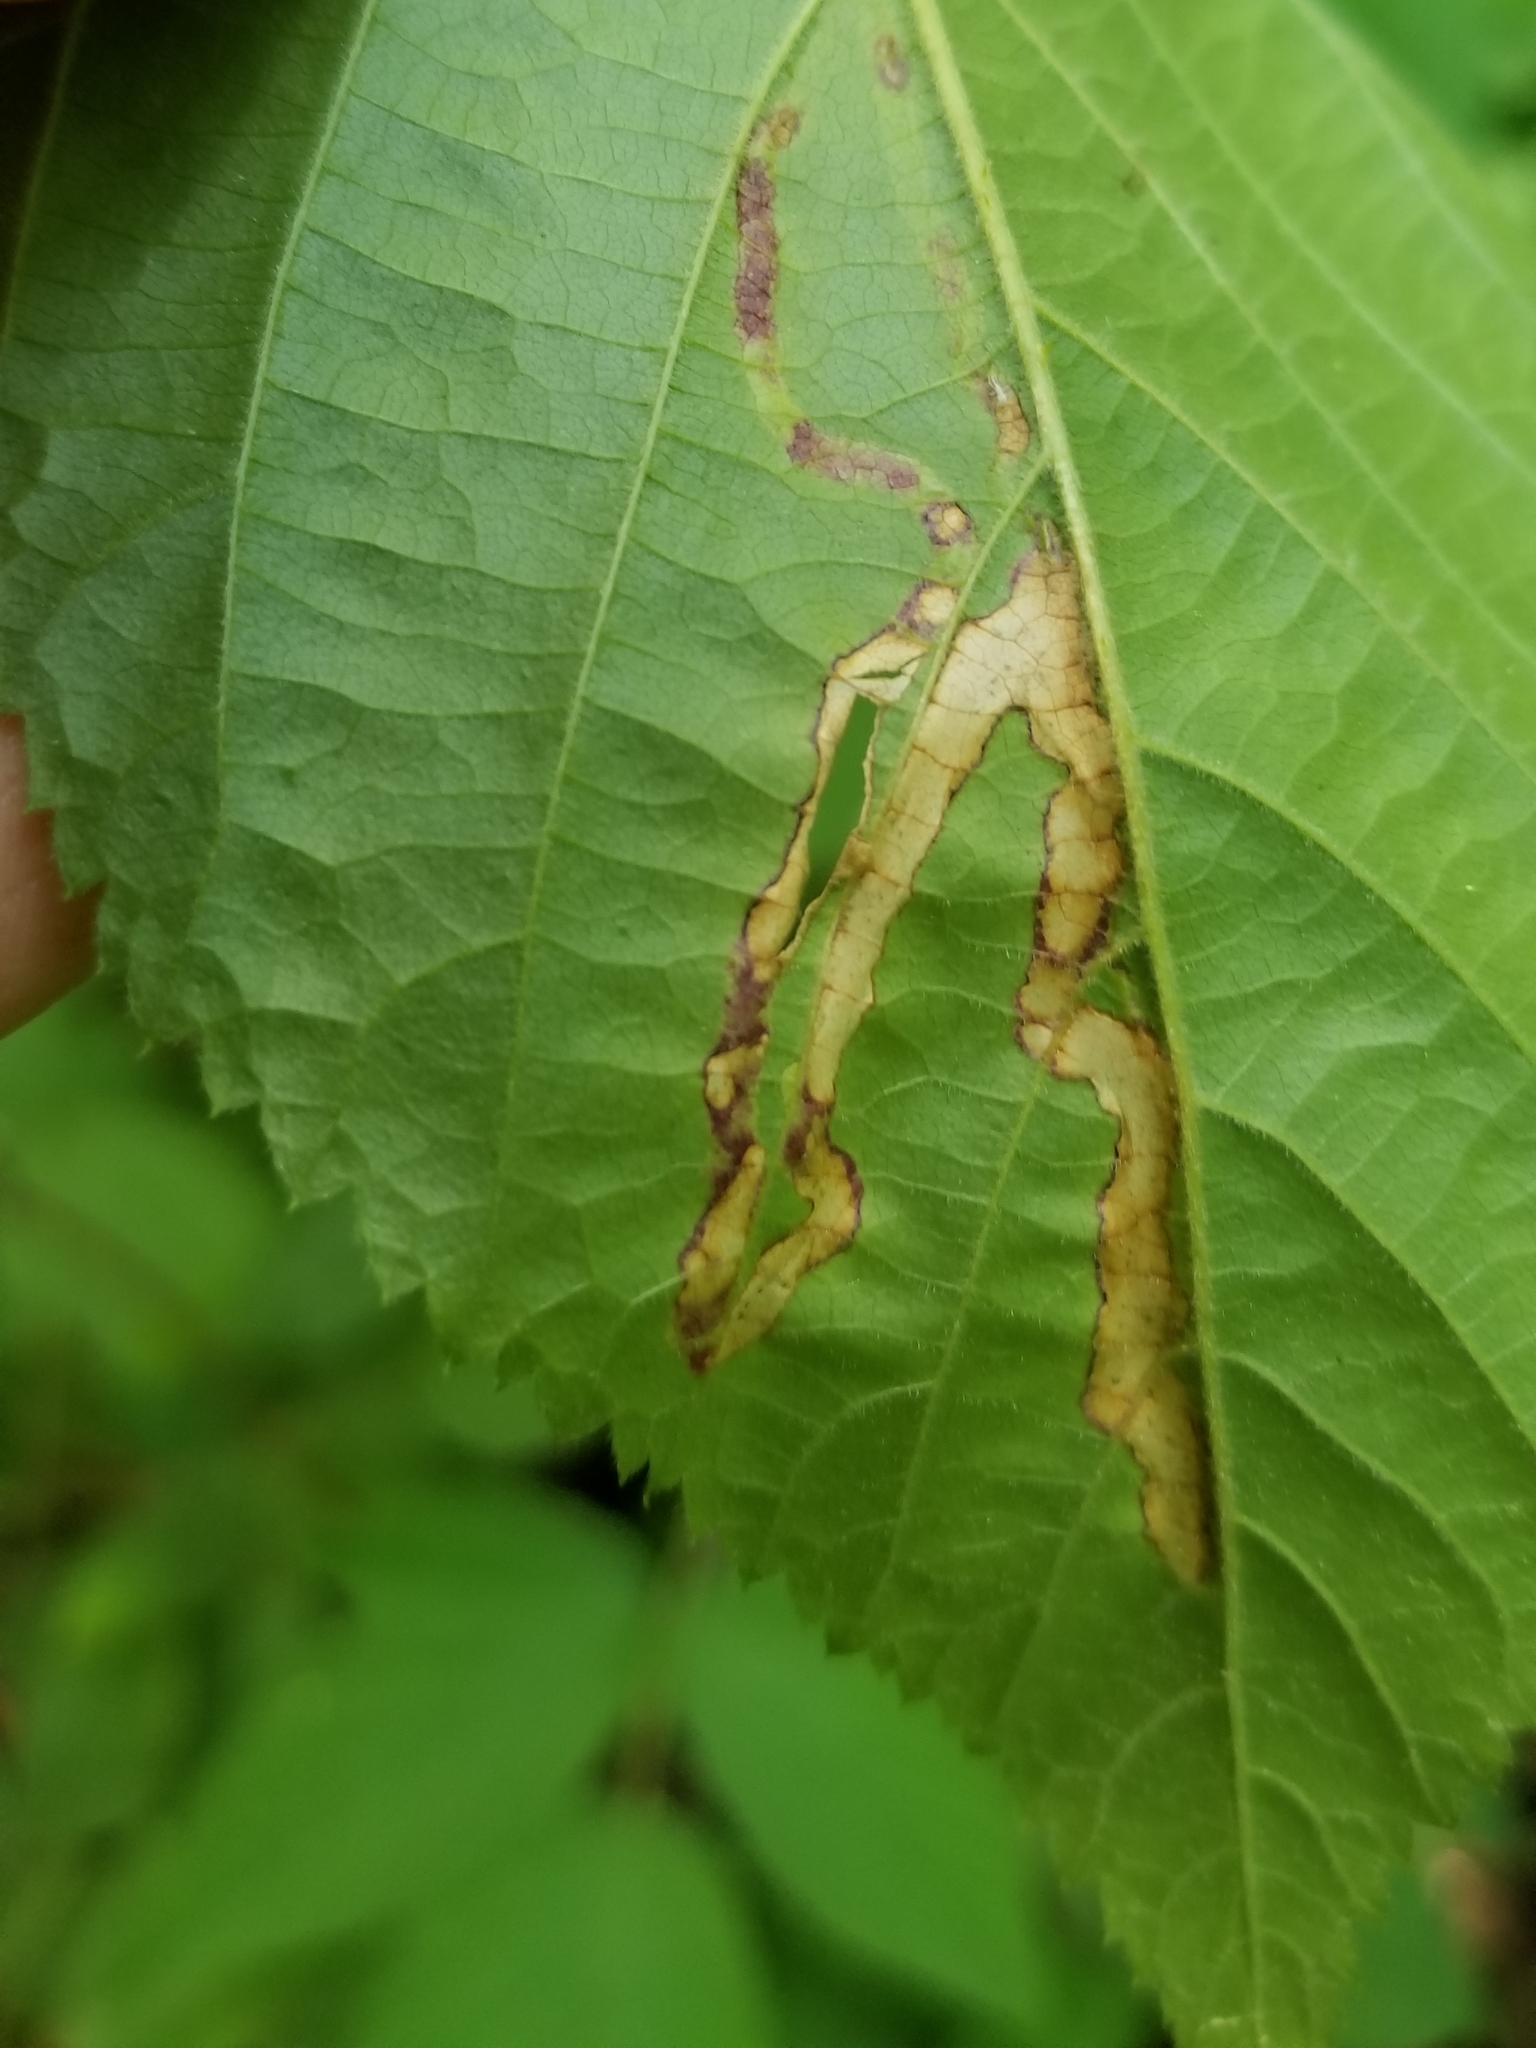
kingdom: Animalia
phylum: Arthropoda
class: Insecta
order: Diptera
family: Agromyzidae
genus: Agromyza
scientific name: Agromyza vockerothi
